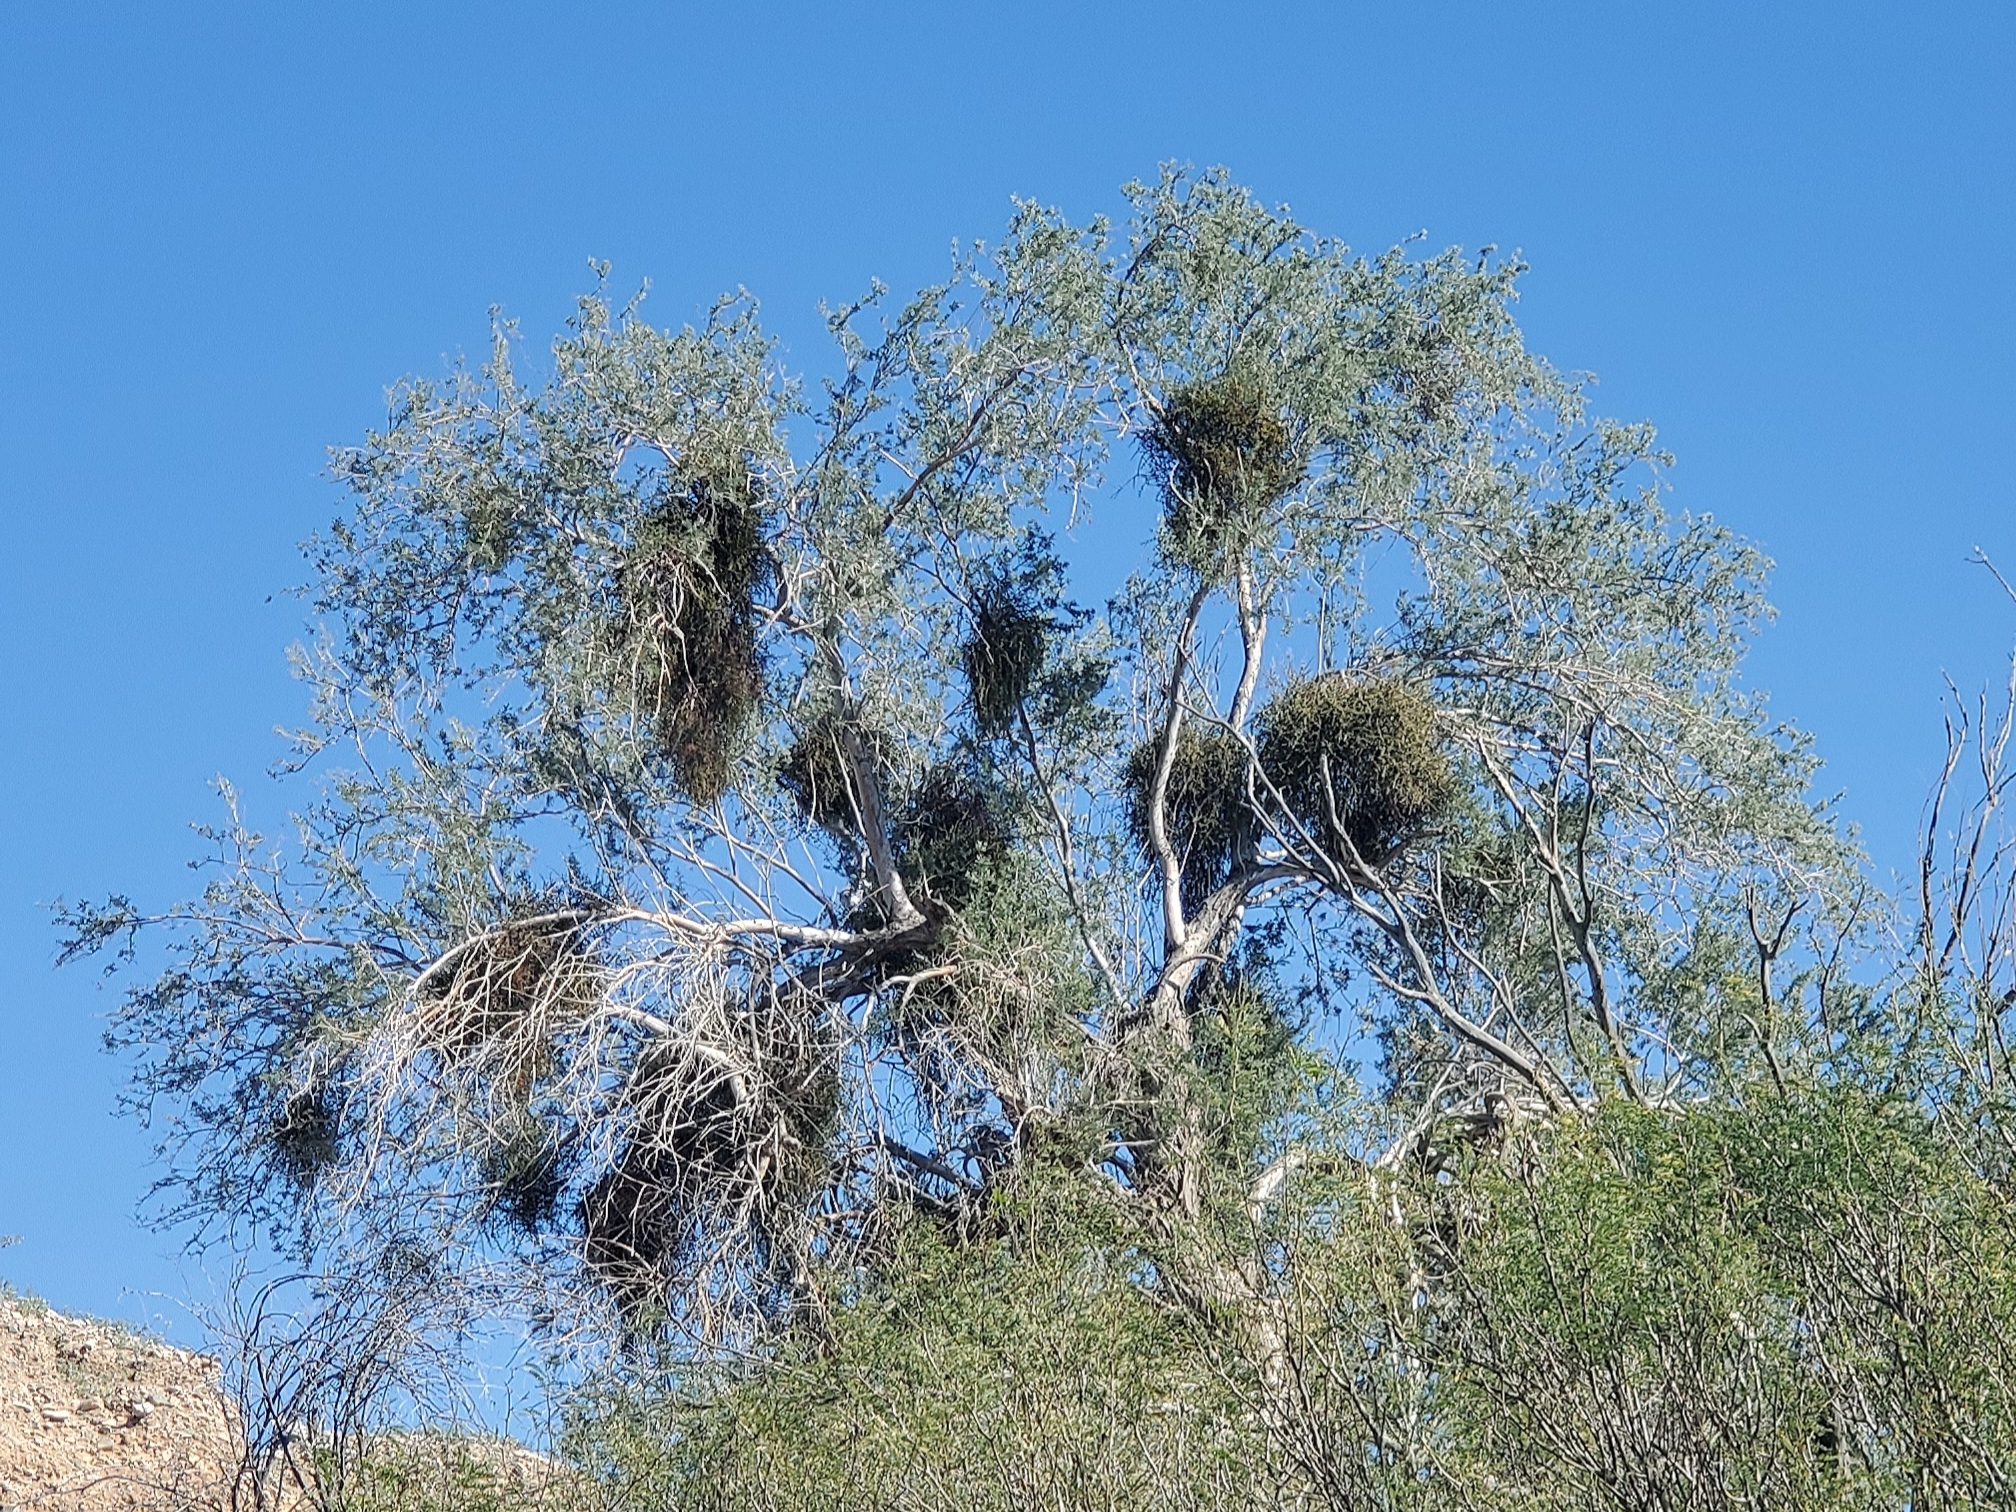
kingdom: Plantae
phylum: Tracheophyta
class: Magnoliopsida
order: Fabales
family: Fabaceae
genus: Olneya
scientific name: Olneya tesota
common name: Desert ironwood
